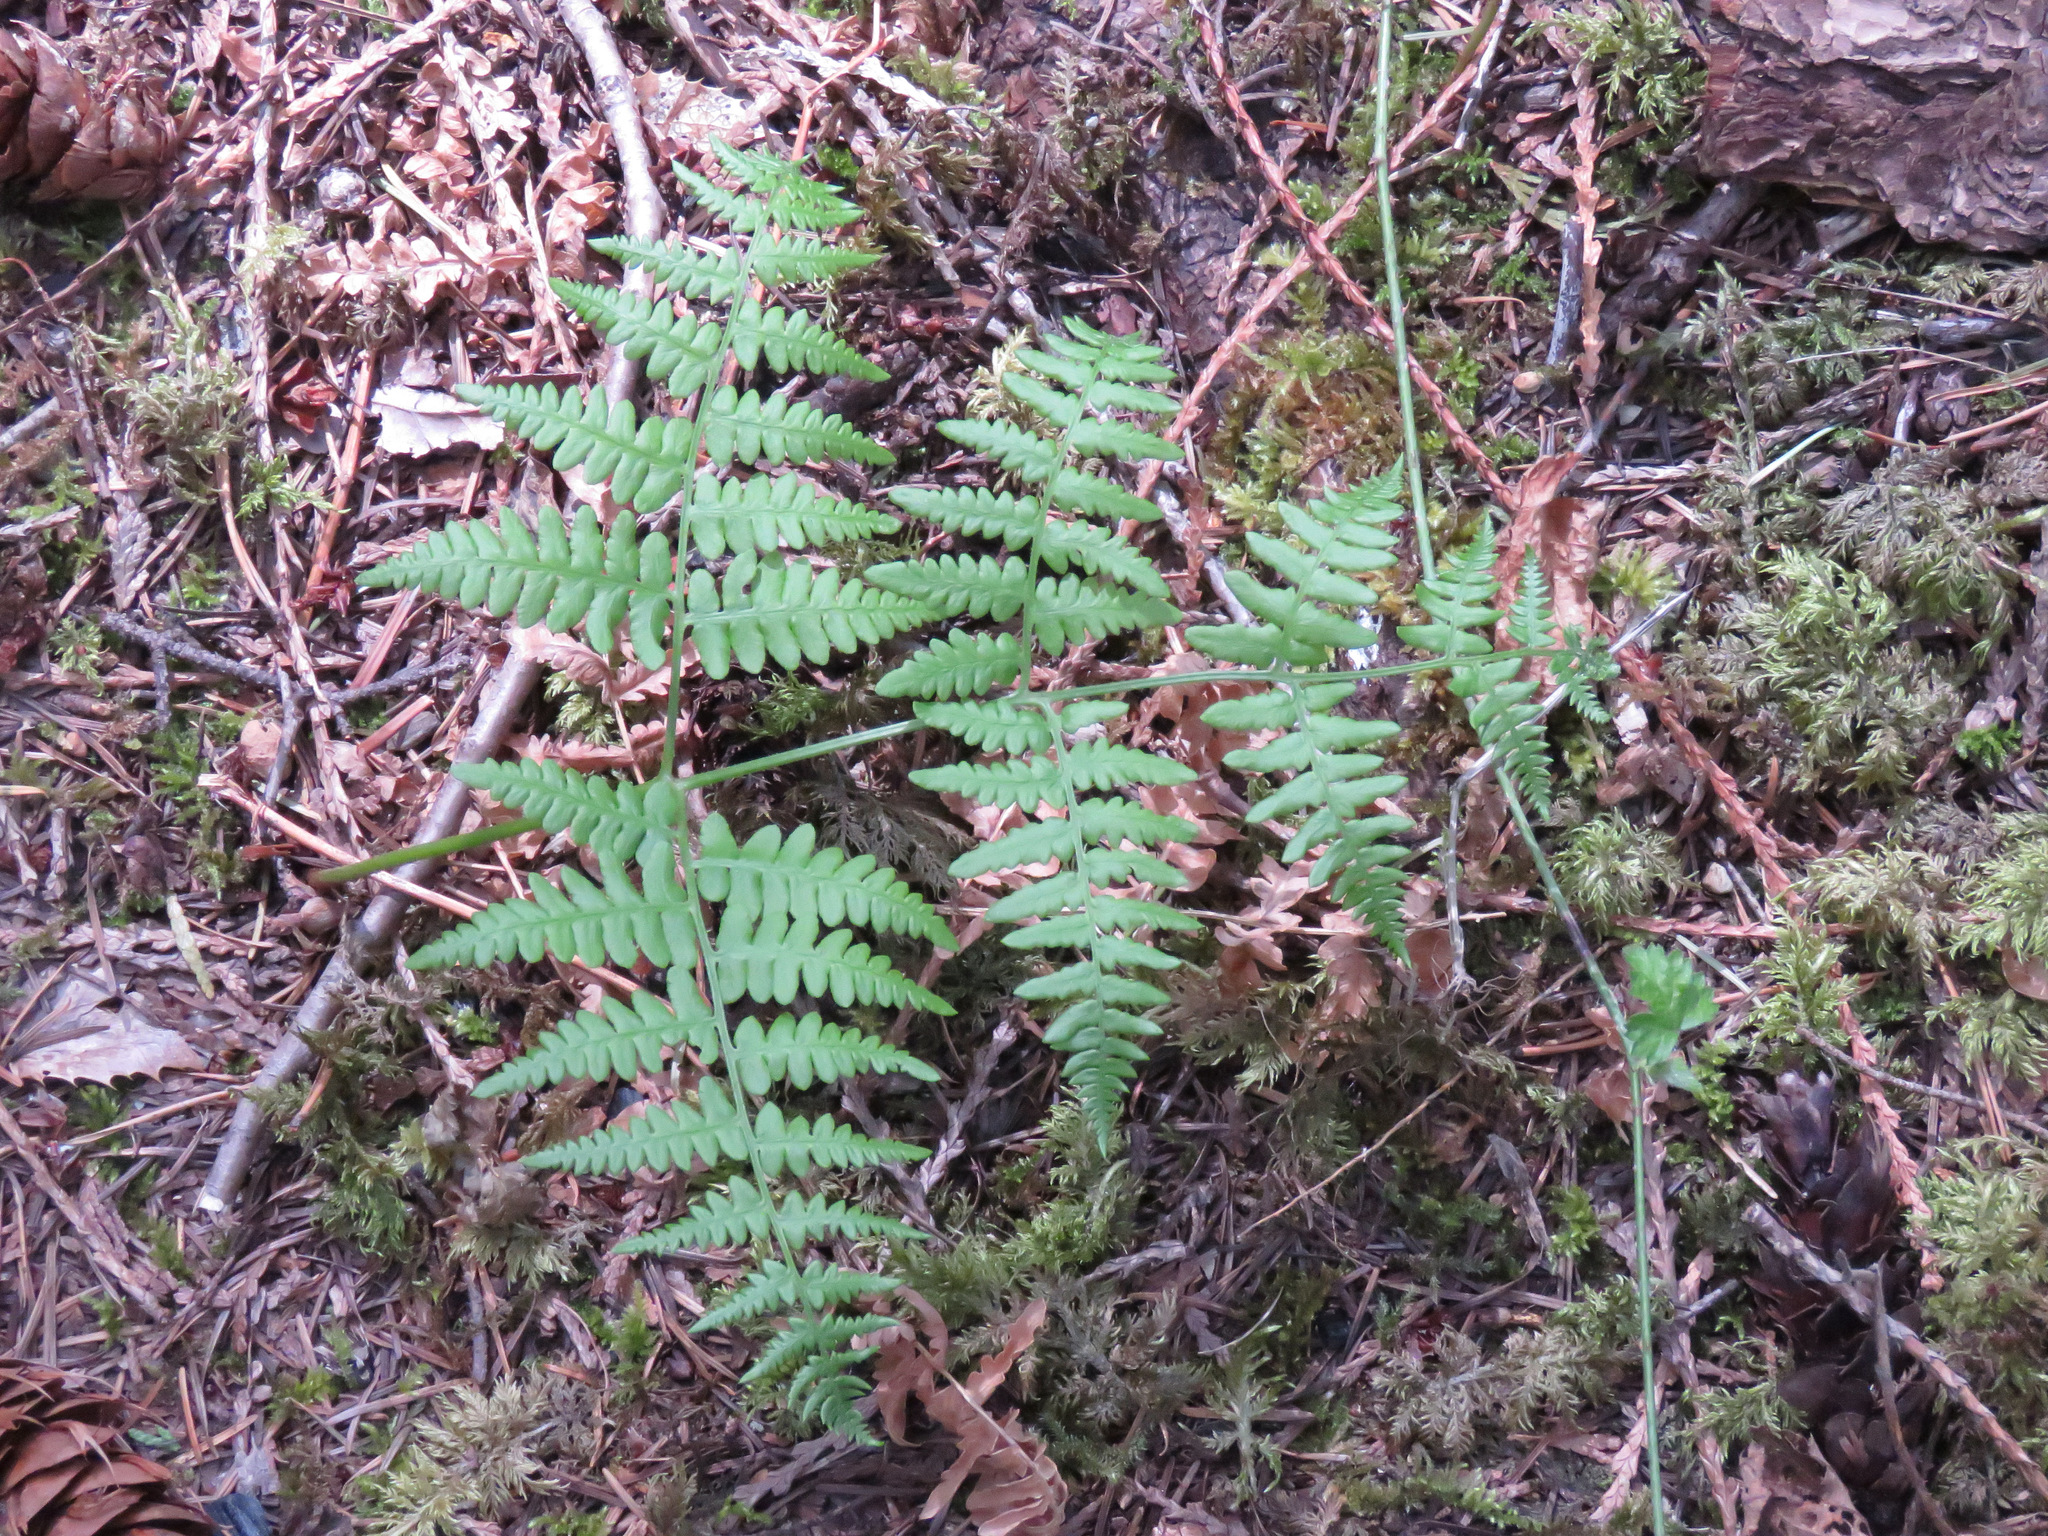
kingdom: Plantae
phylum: Tracheophyta
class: Polypodiopsida
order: Polypodiales
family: Dennstaedtiaceae
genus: Pteridium
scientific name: Pteridium aquilinum
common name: Bracken
